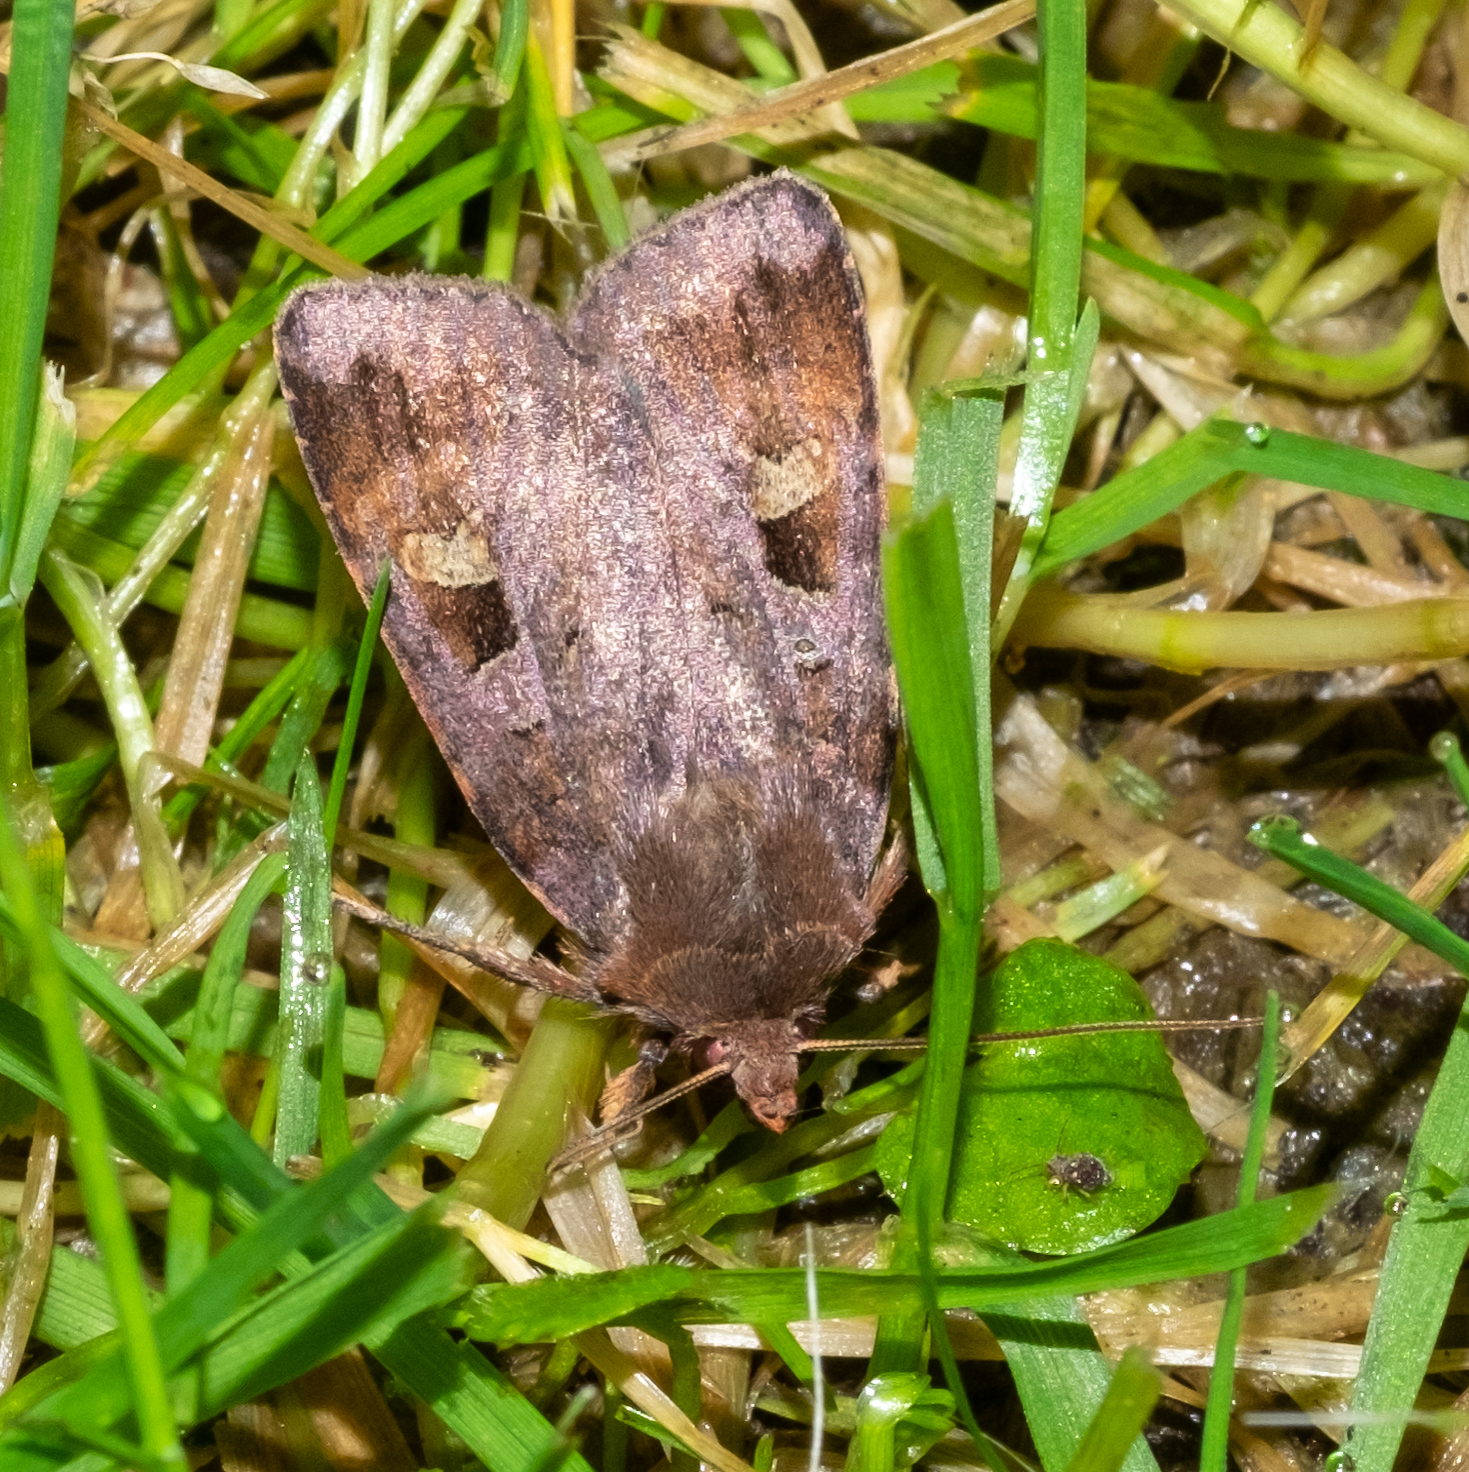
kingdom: Animalia
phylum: Arthropoda
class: Insecta
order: Lepidoptera
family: Noctuidae
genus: Diarsia
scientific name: Diarsia brunnea
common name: Purple clay
